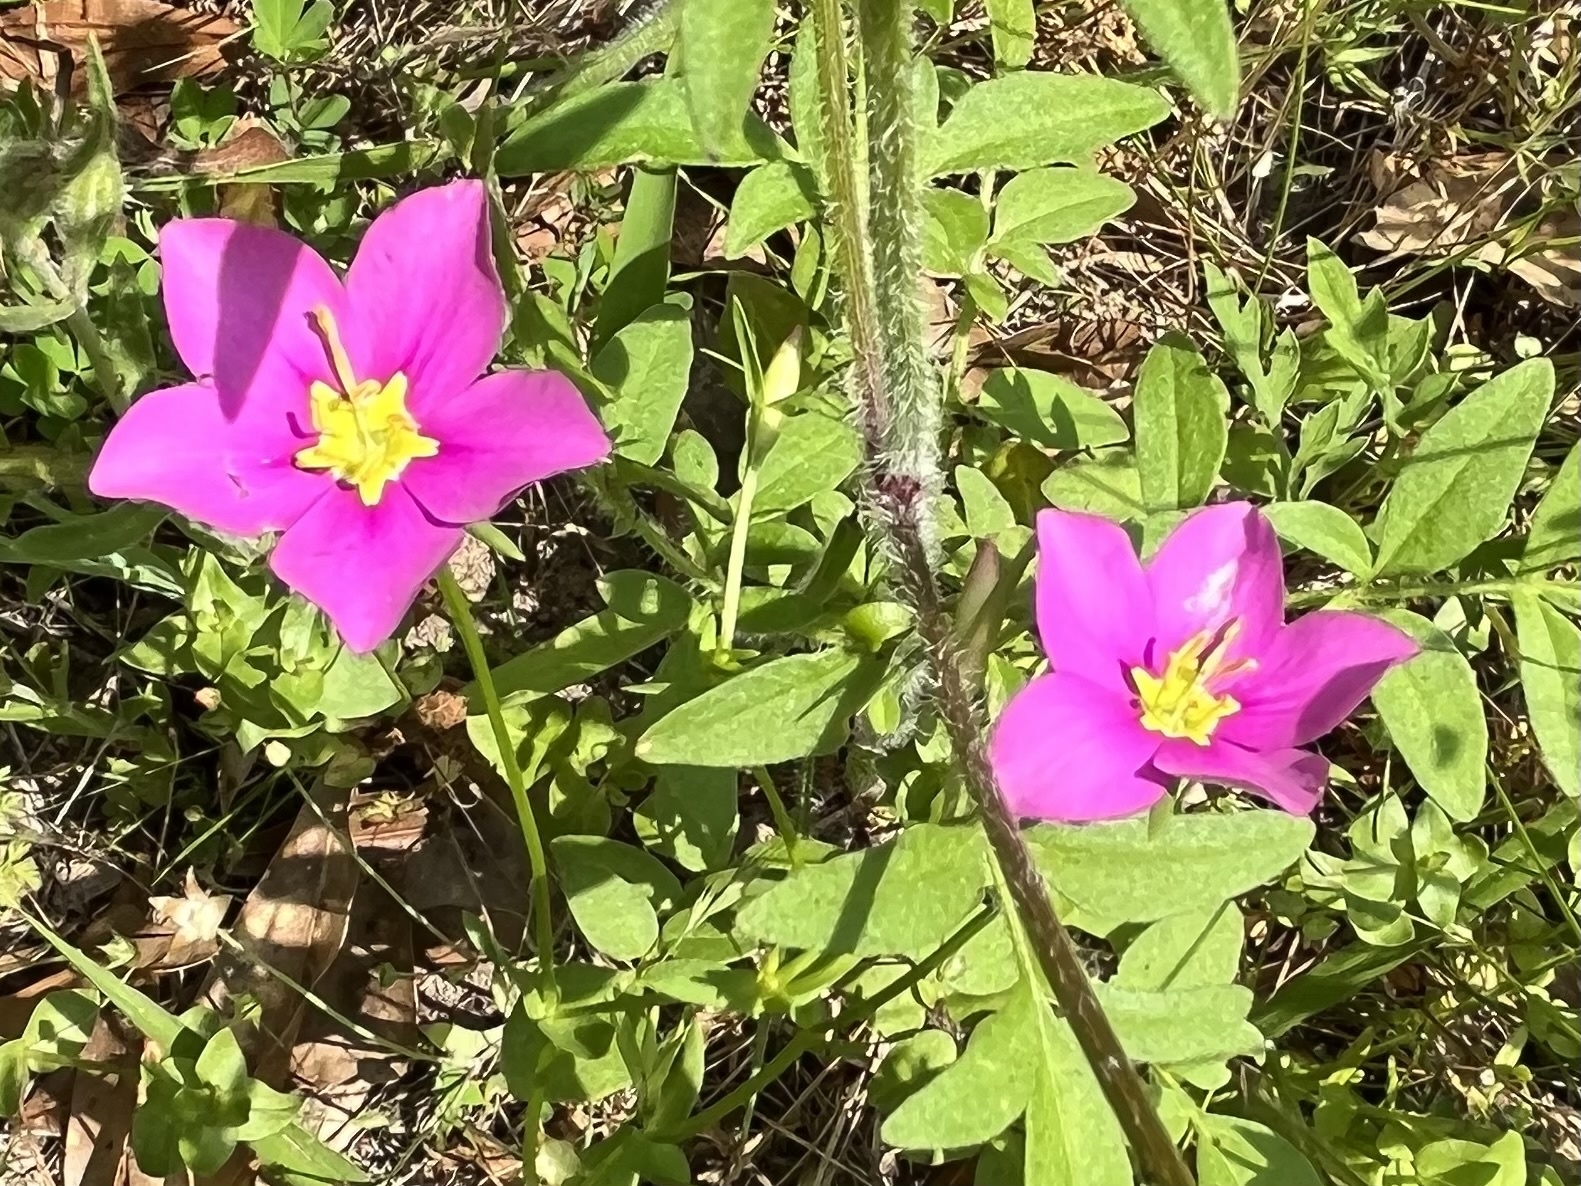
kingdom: Plantae
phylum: Tracheophyta
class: Magnoliopsida
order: Gentianales
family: Gentianaceae
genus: Sabatia
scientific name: Sabatia campestris
